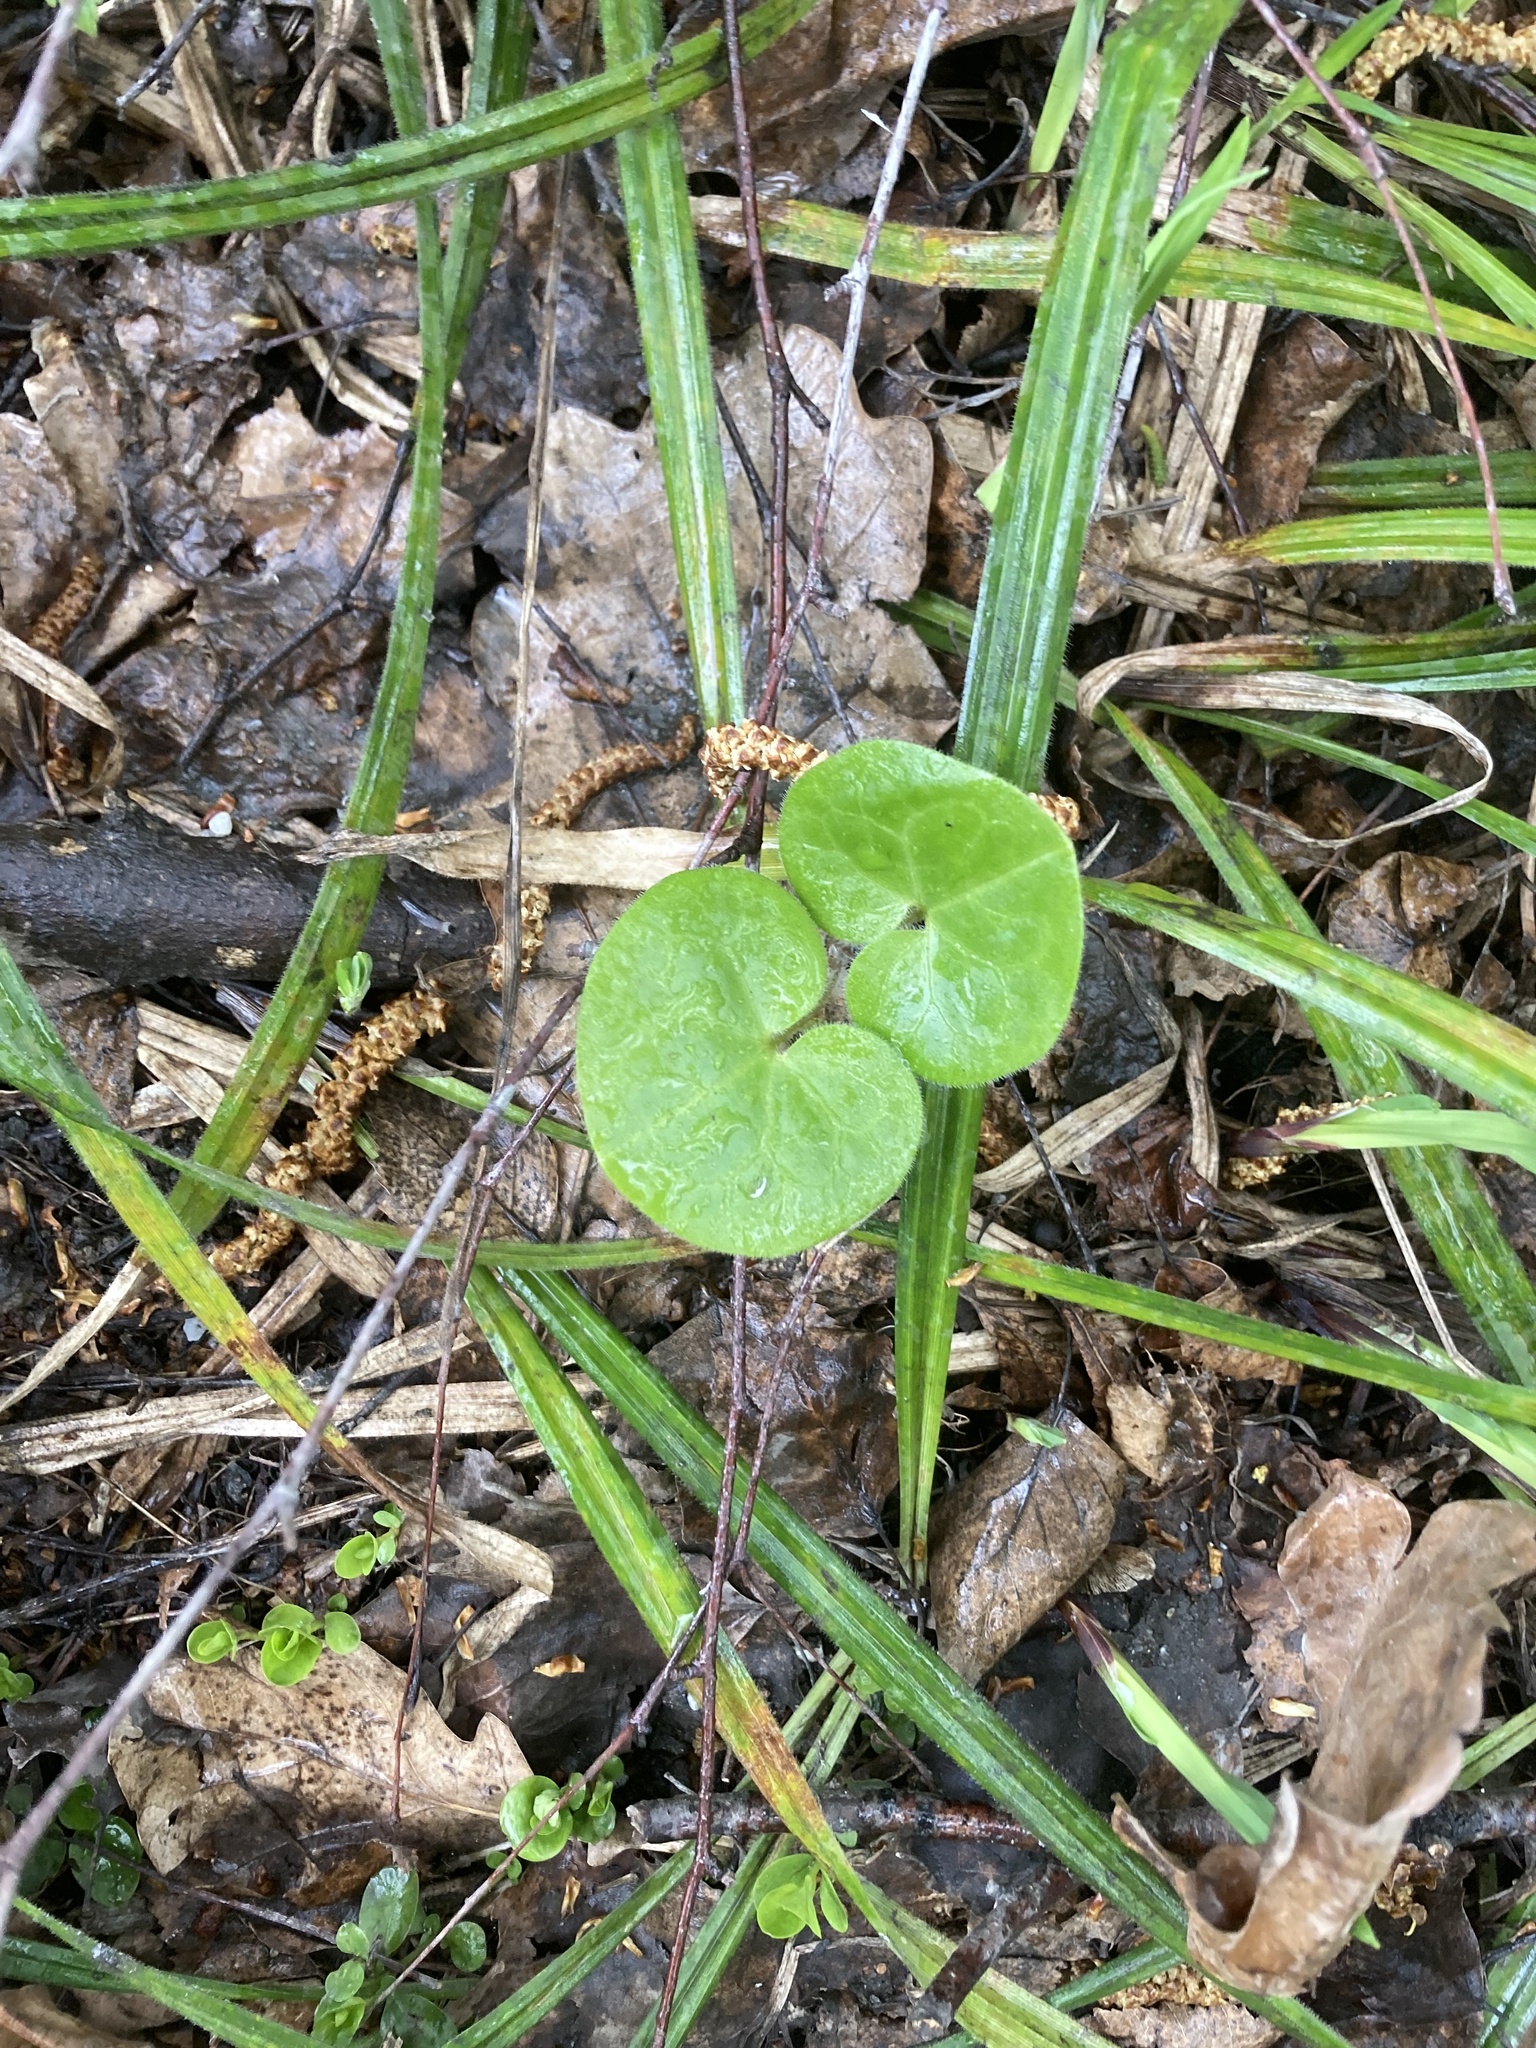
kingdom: Plantae
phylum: Tracheophyta
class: Magnoliopsida
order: Piperales
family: Aristolochiaceae
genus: Asarum
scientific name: Asarum europaeum
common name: Asarabacca
